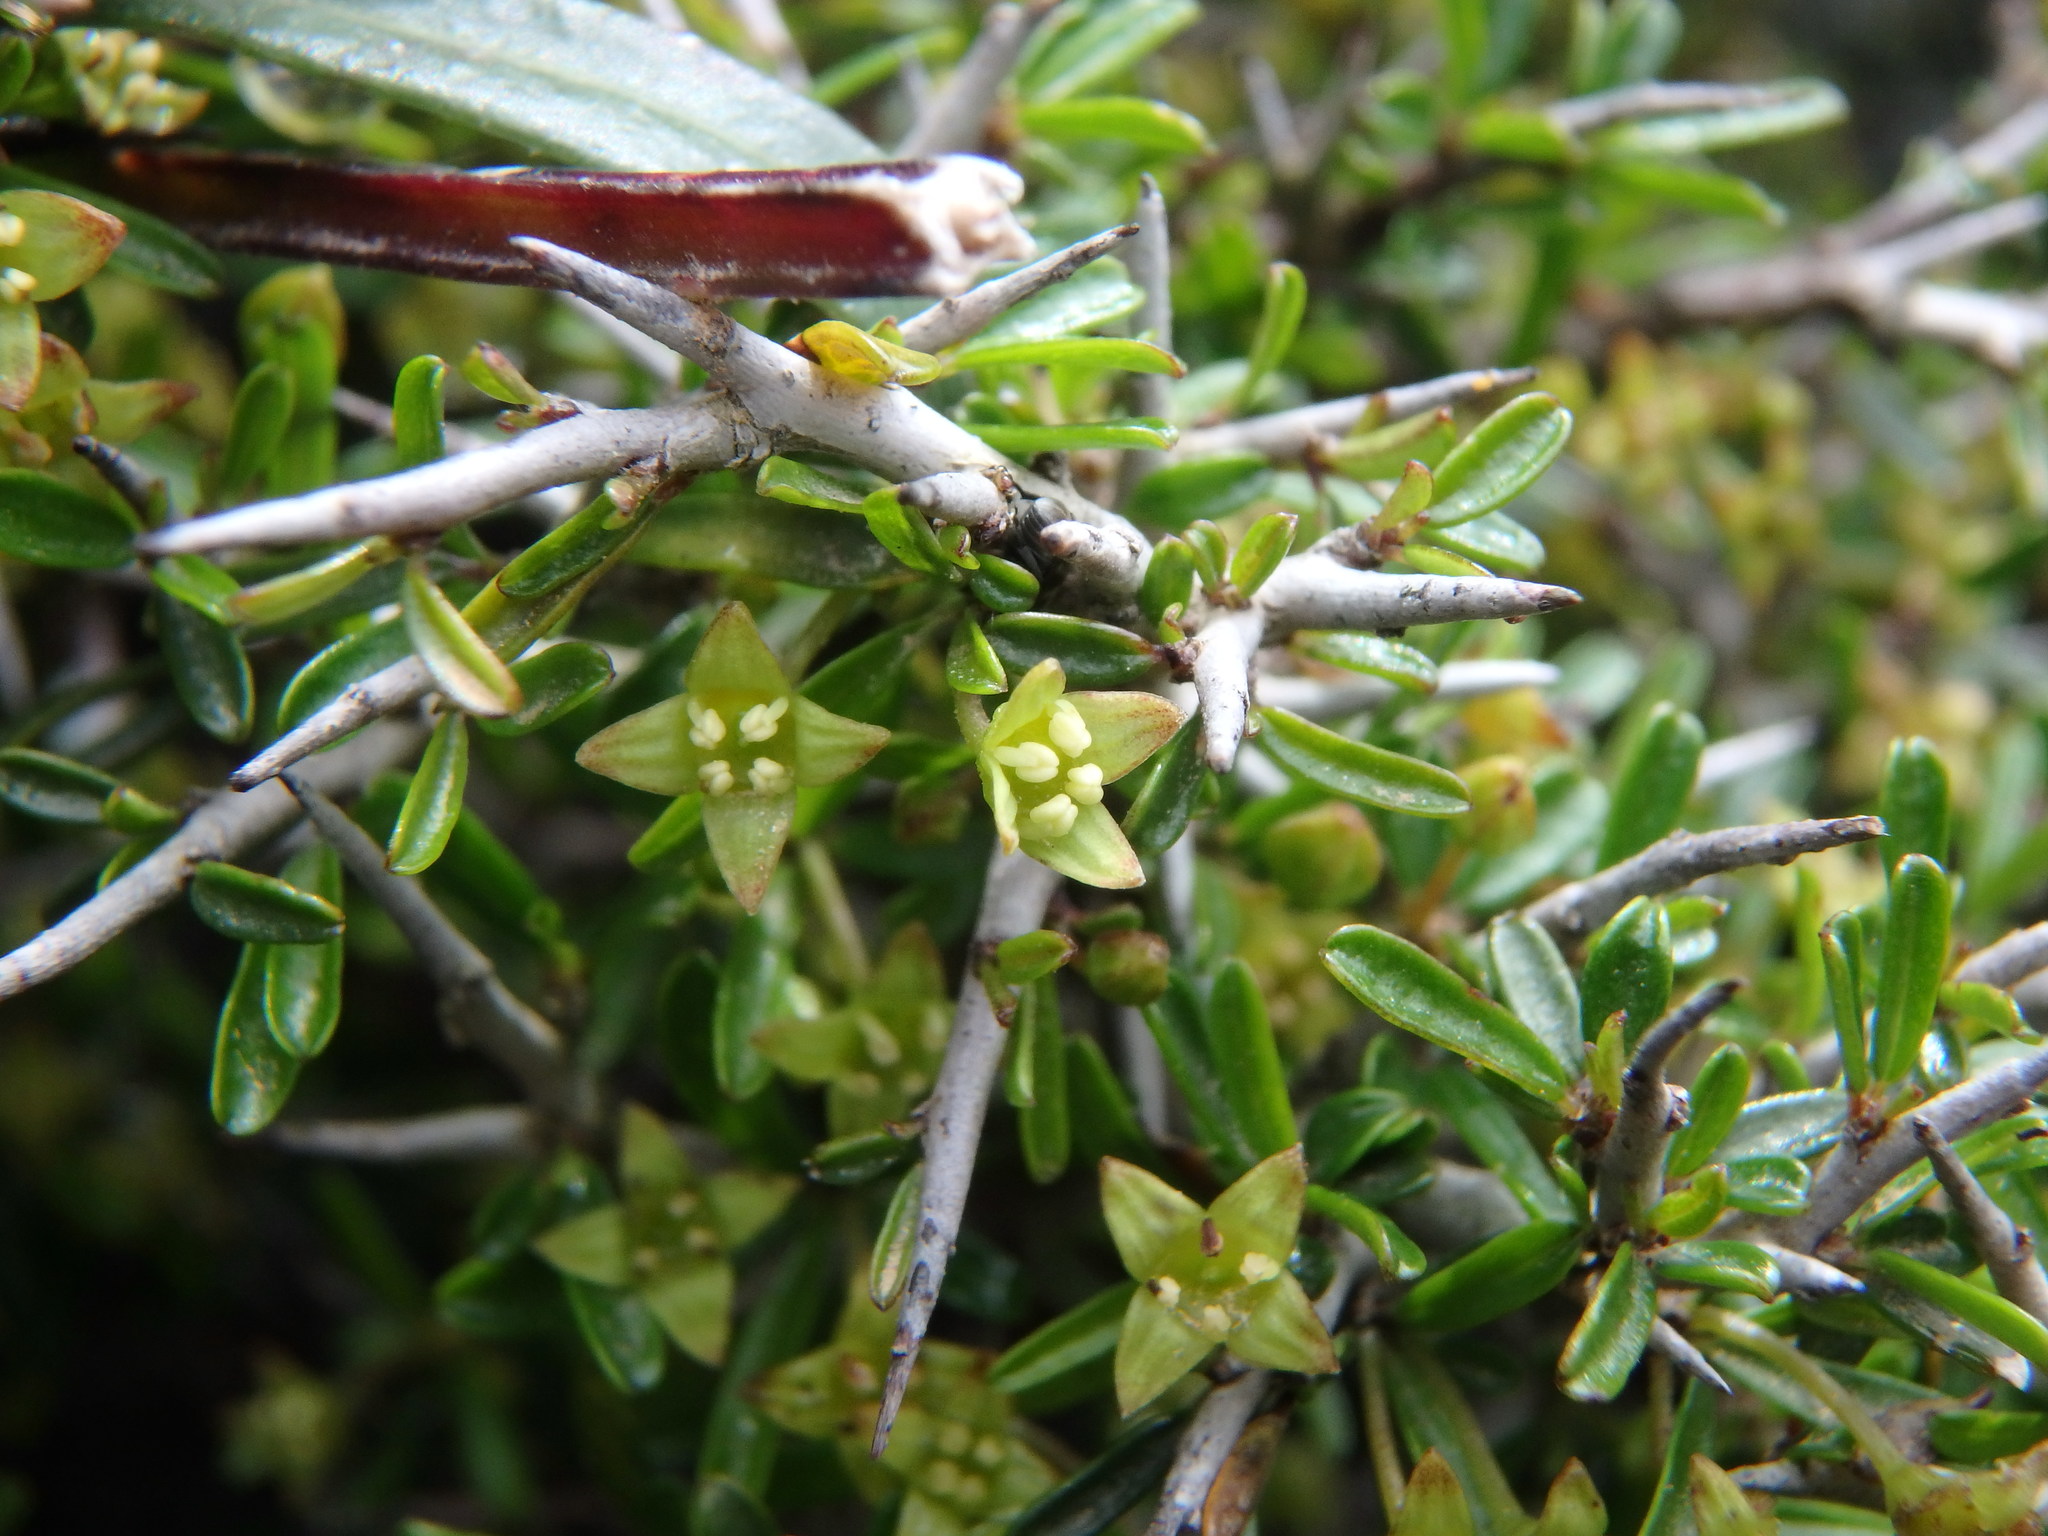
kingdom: Plantae
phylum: Tracheophyta
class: Magnoliopsida
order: Rosales
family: Rhamnaceae
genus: Rhamnus
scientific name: Rhamnus oleoides
